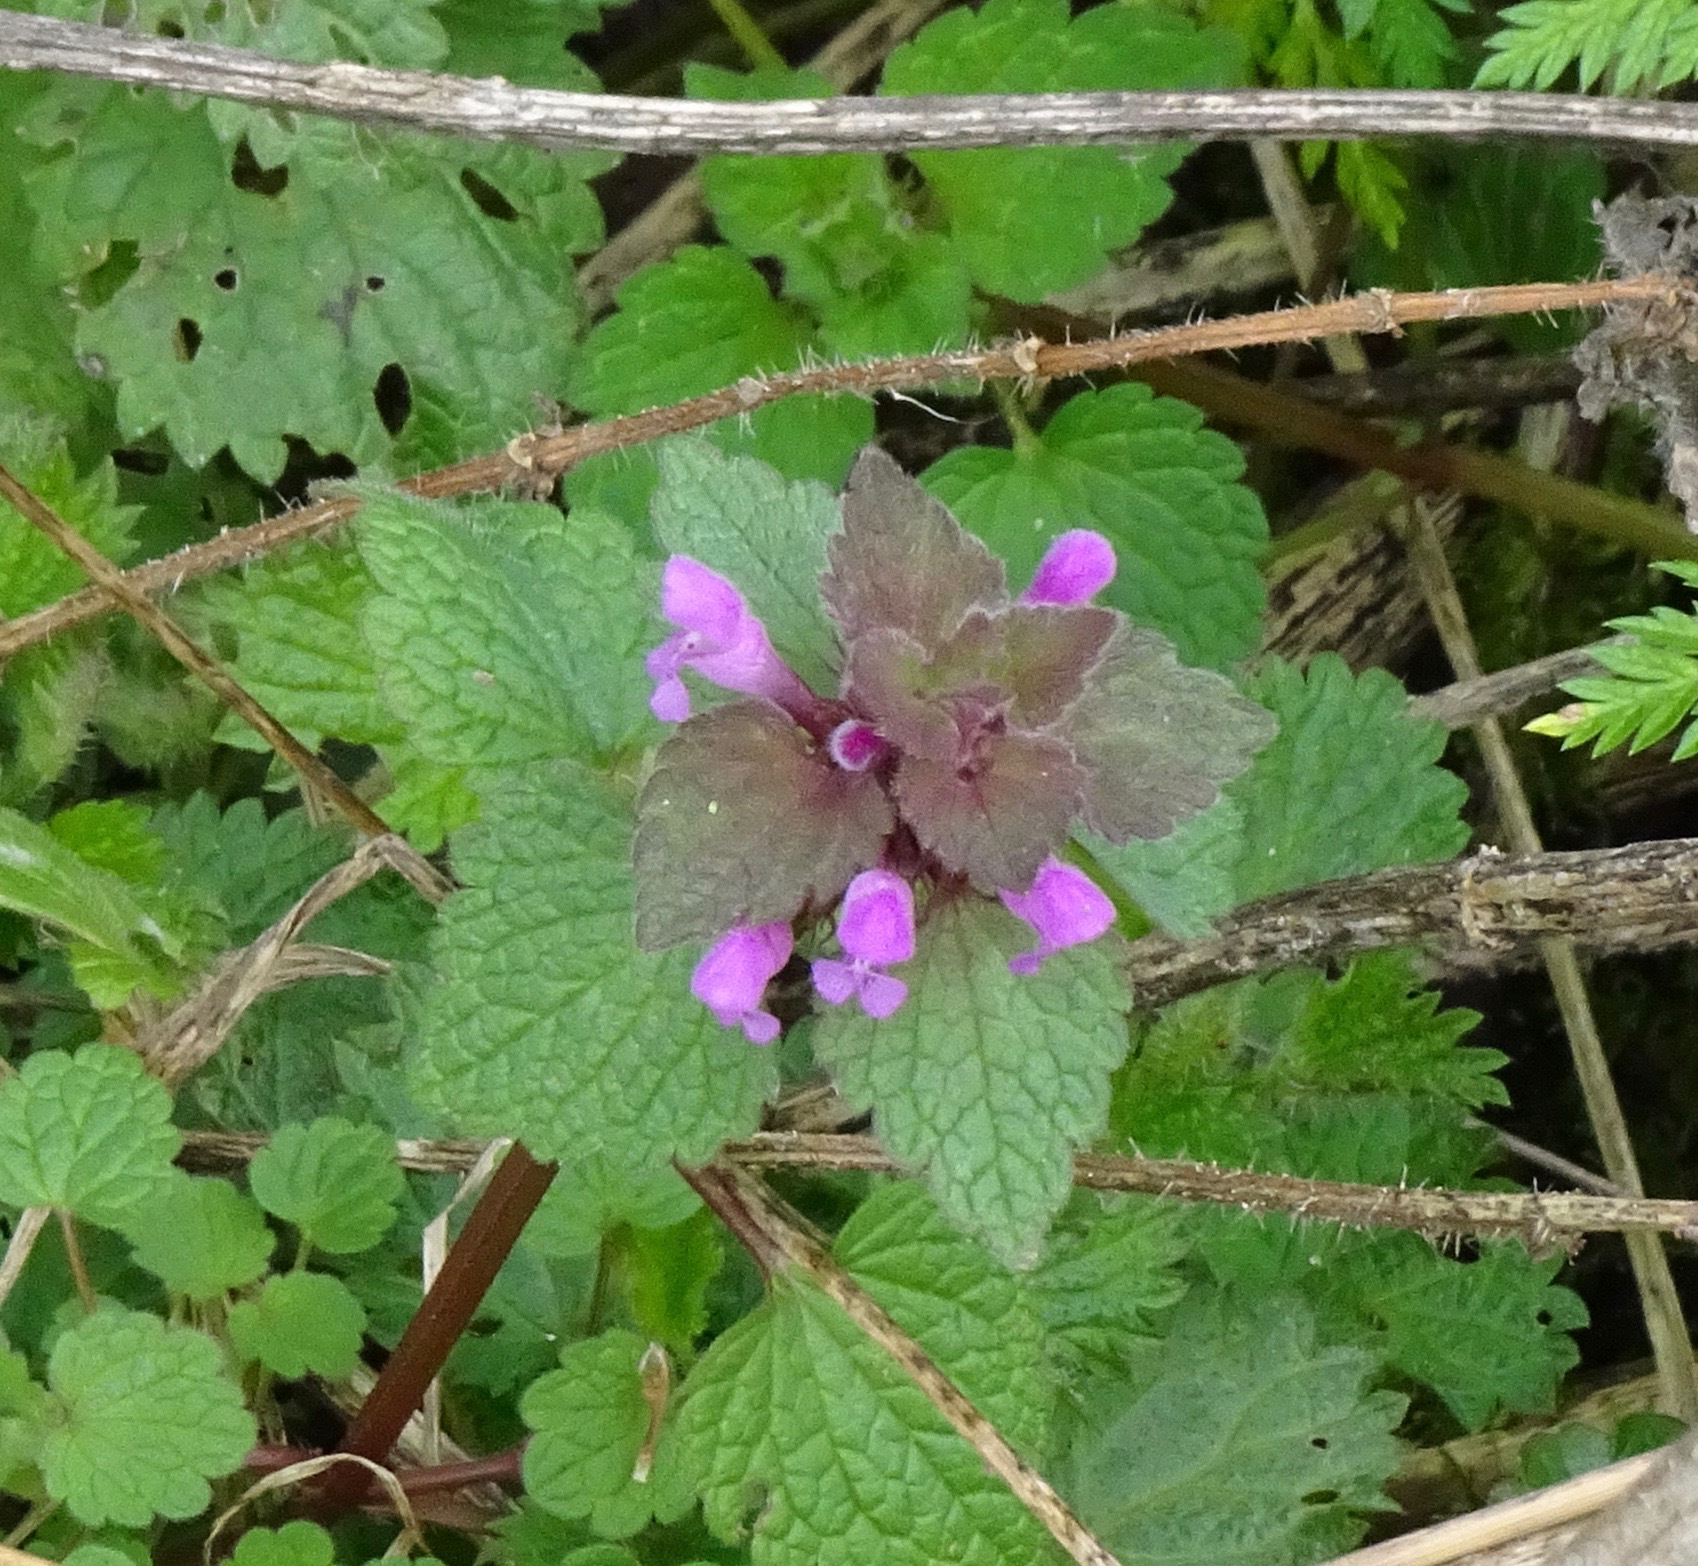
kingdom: Plantae
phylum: Tracheophyta
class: Magnoliopsida
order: Lamiales
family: Lamiaceae
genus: Lamium
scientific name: Lamium purpureum
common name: Red dead-nettle
